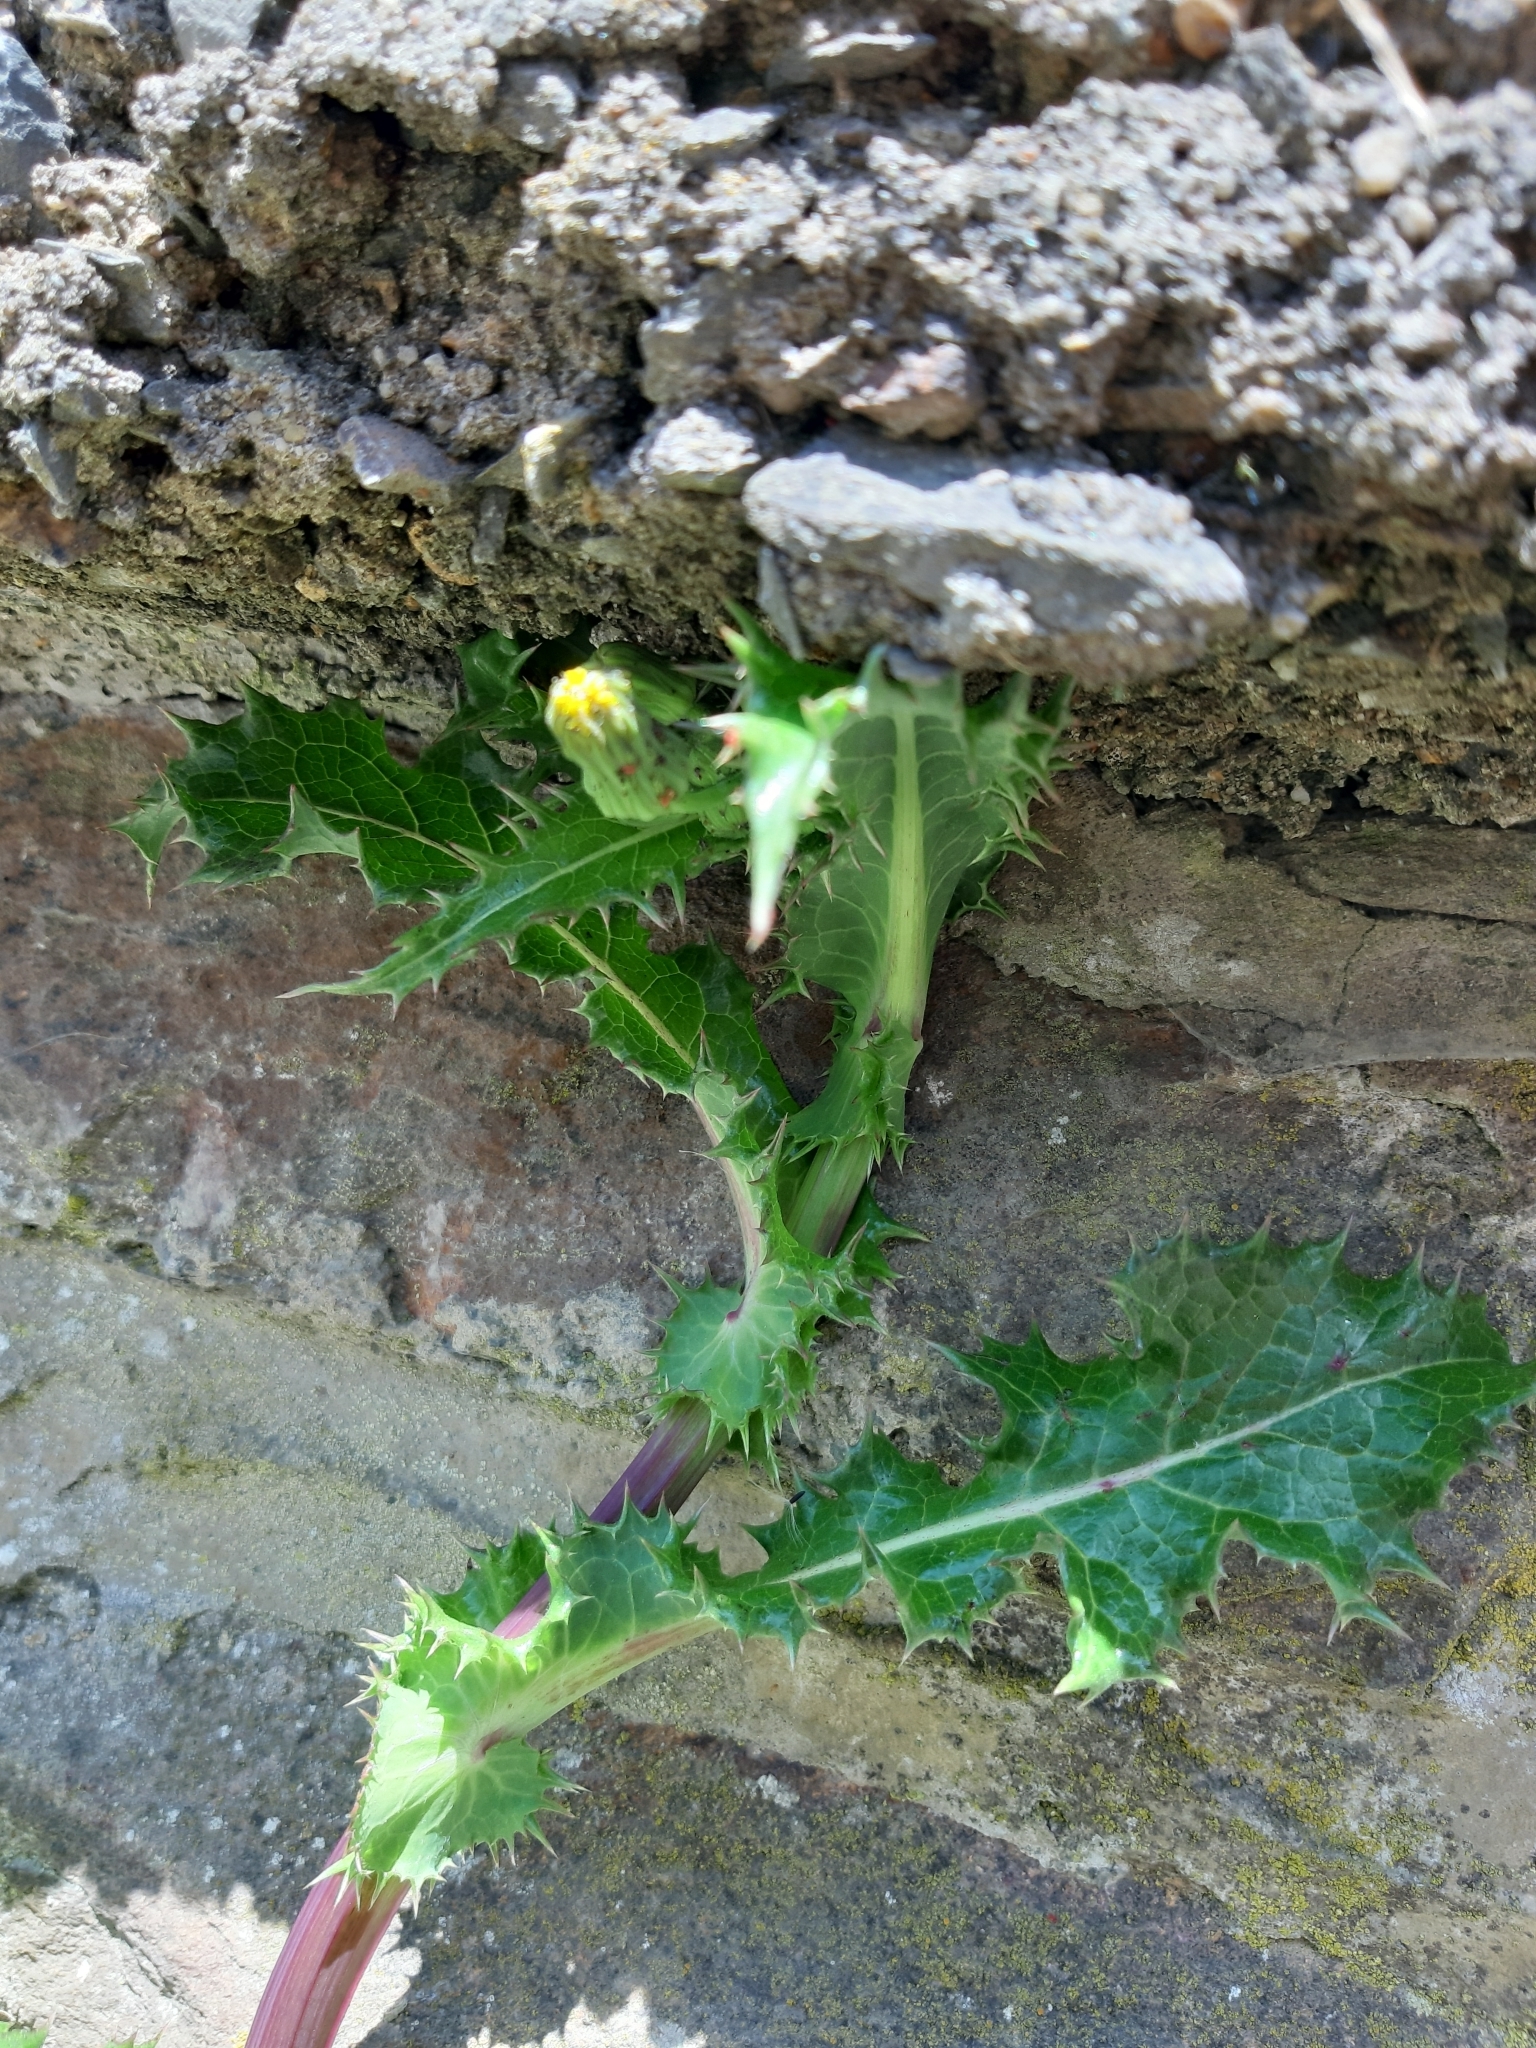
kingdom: Plantae
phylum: Tracheophyta
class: Magnoliopsida
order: Asterales
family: Asteraceae
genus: Sonchus
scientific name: Sonchus asper
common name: Prickly sow-thistle
